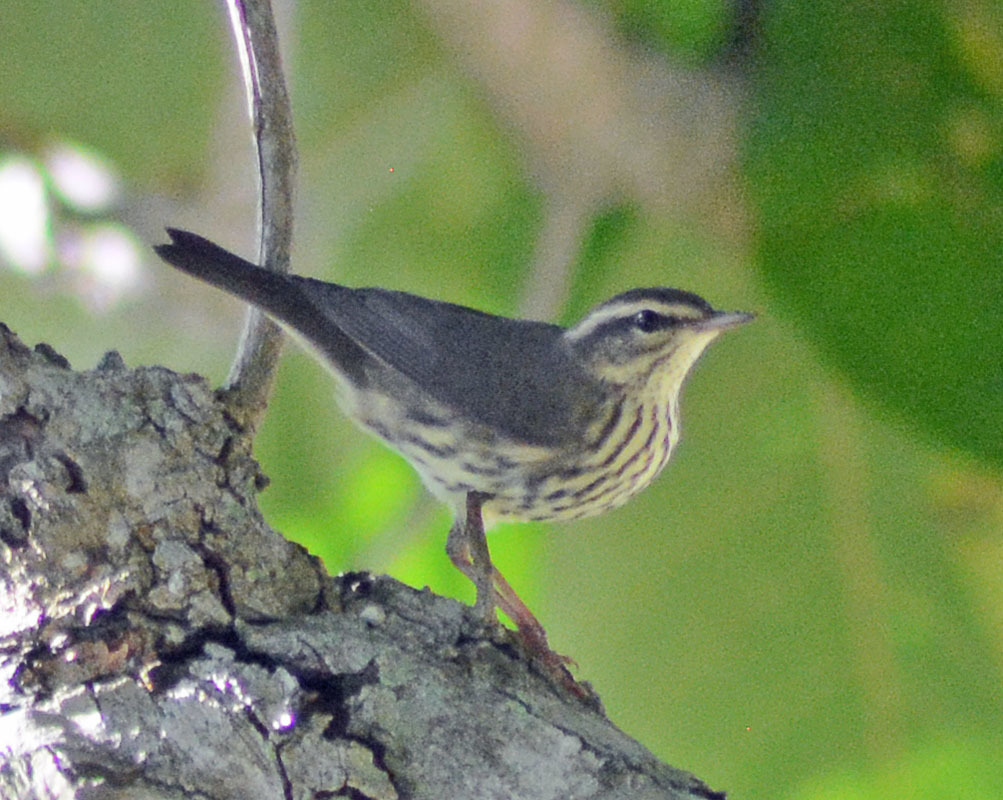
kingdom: Animalia
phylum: Chordata
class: Aves
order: Passeriformes
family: Parulidae
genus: Parkesia
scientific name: Parkesia noveboracensis
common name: Northern waterthrush
